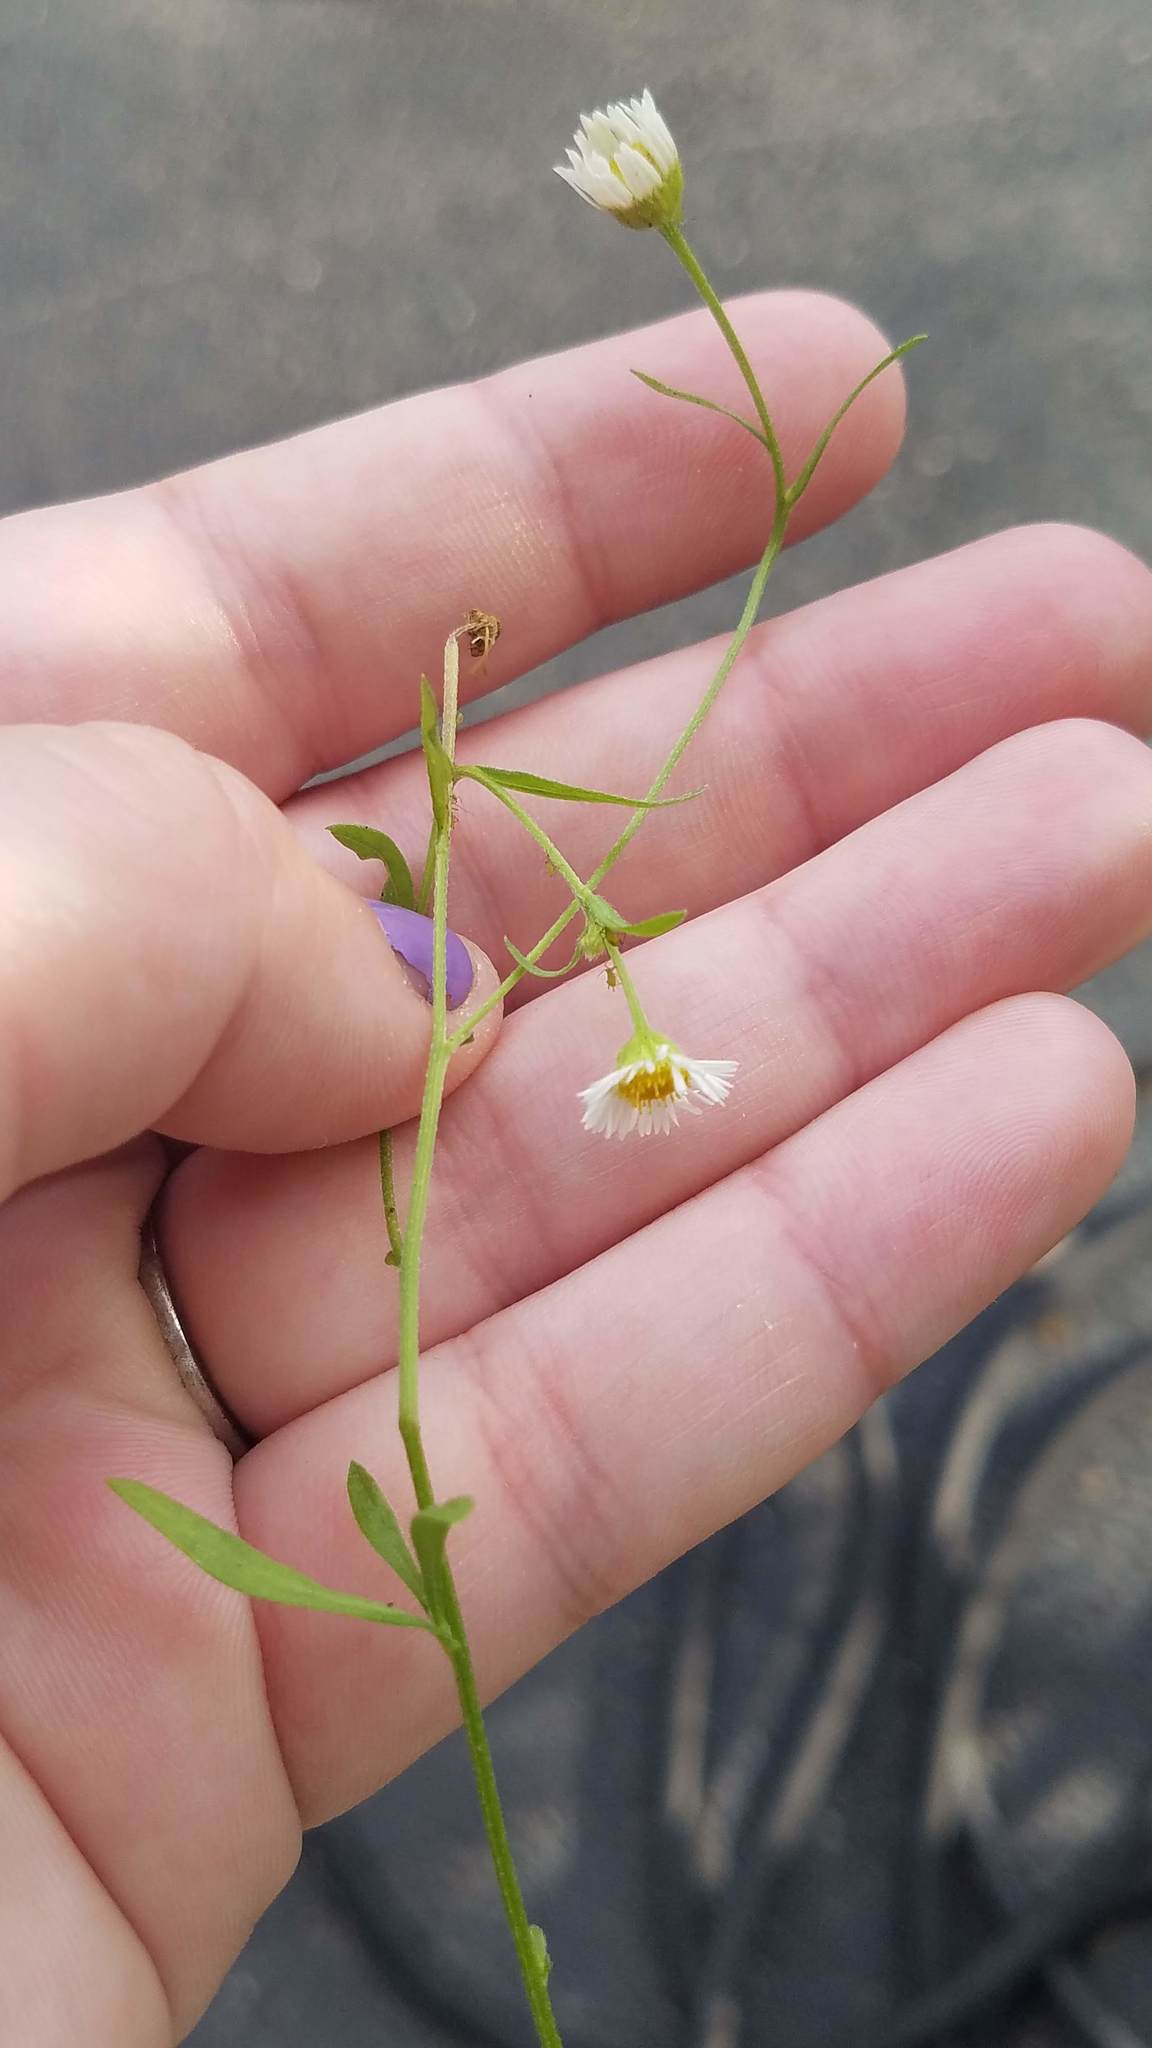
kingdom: Plantae
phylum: Tracheophyta
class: Magnoliopsida
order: Asterales
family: Asteraceae
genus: Erigeron
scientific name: Erigeron strigosus
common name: Common eastern fleabane
